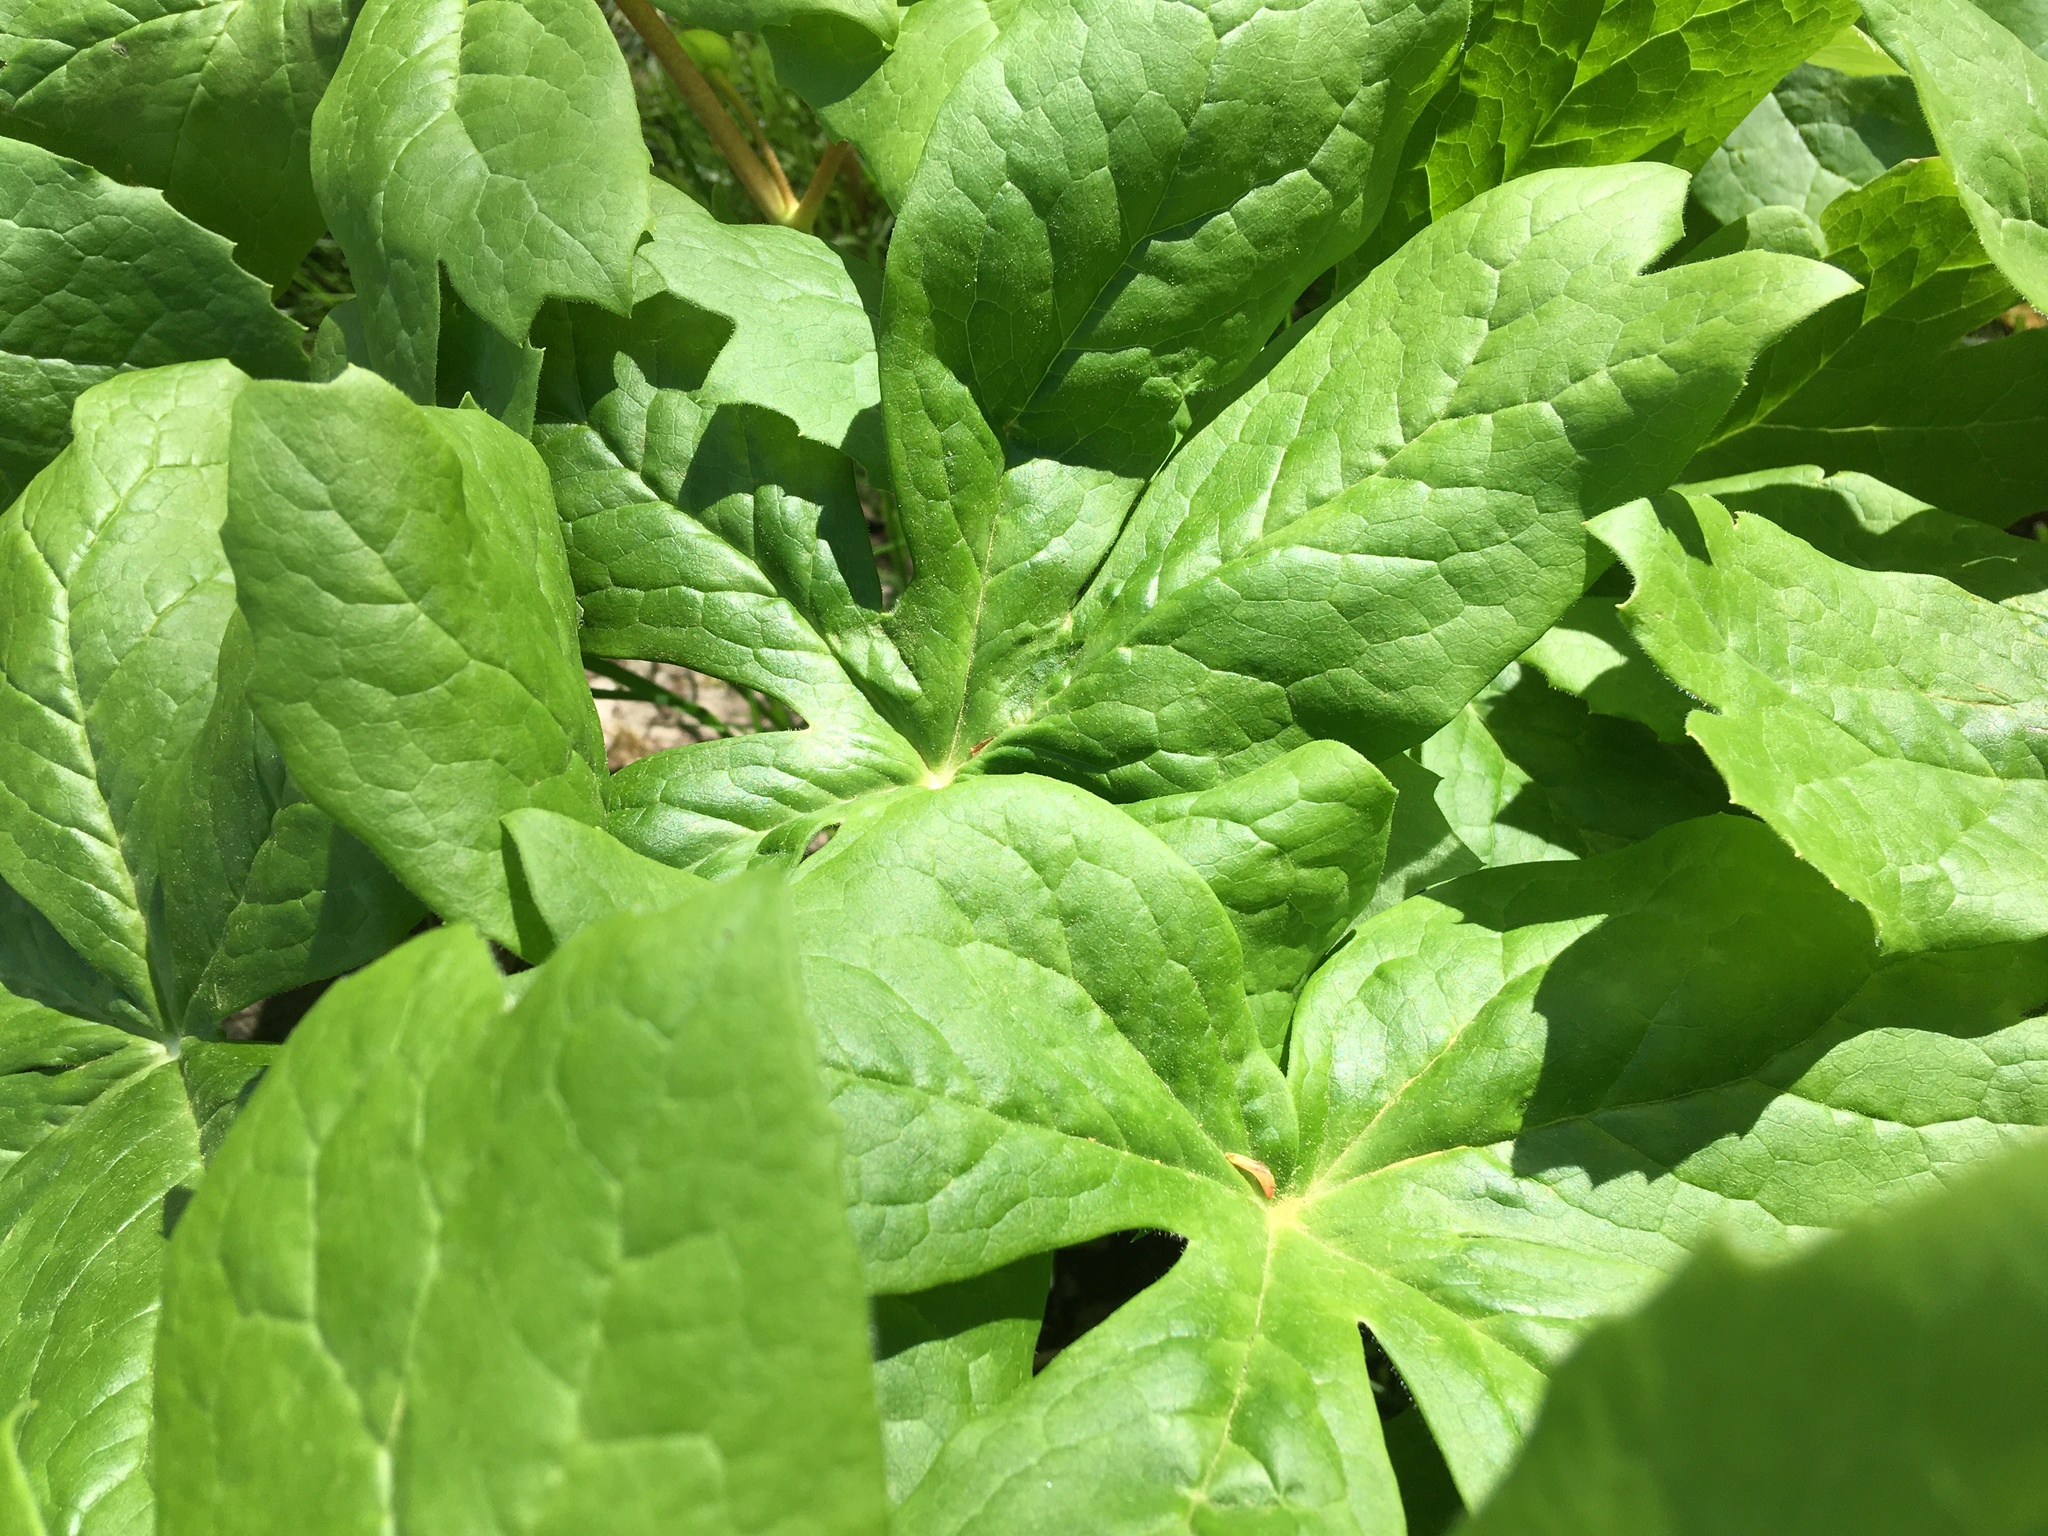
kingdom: Plantae
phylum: Tracheophyta
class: Magnoliopsida
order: Ranunculales
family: Berberidaceae
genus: Podophyllum
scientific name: Podophyllum peltatum
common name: Wild mandrake
